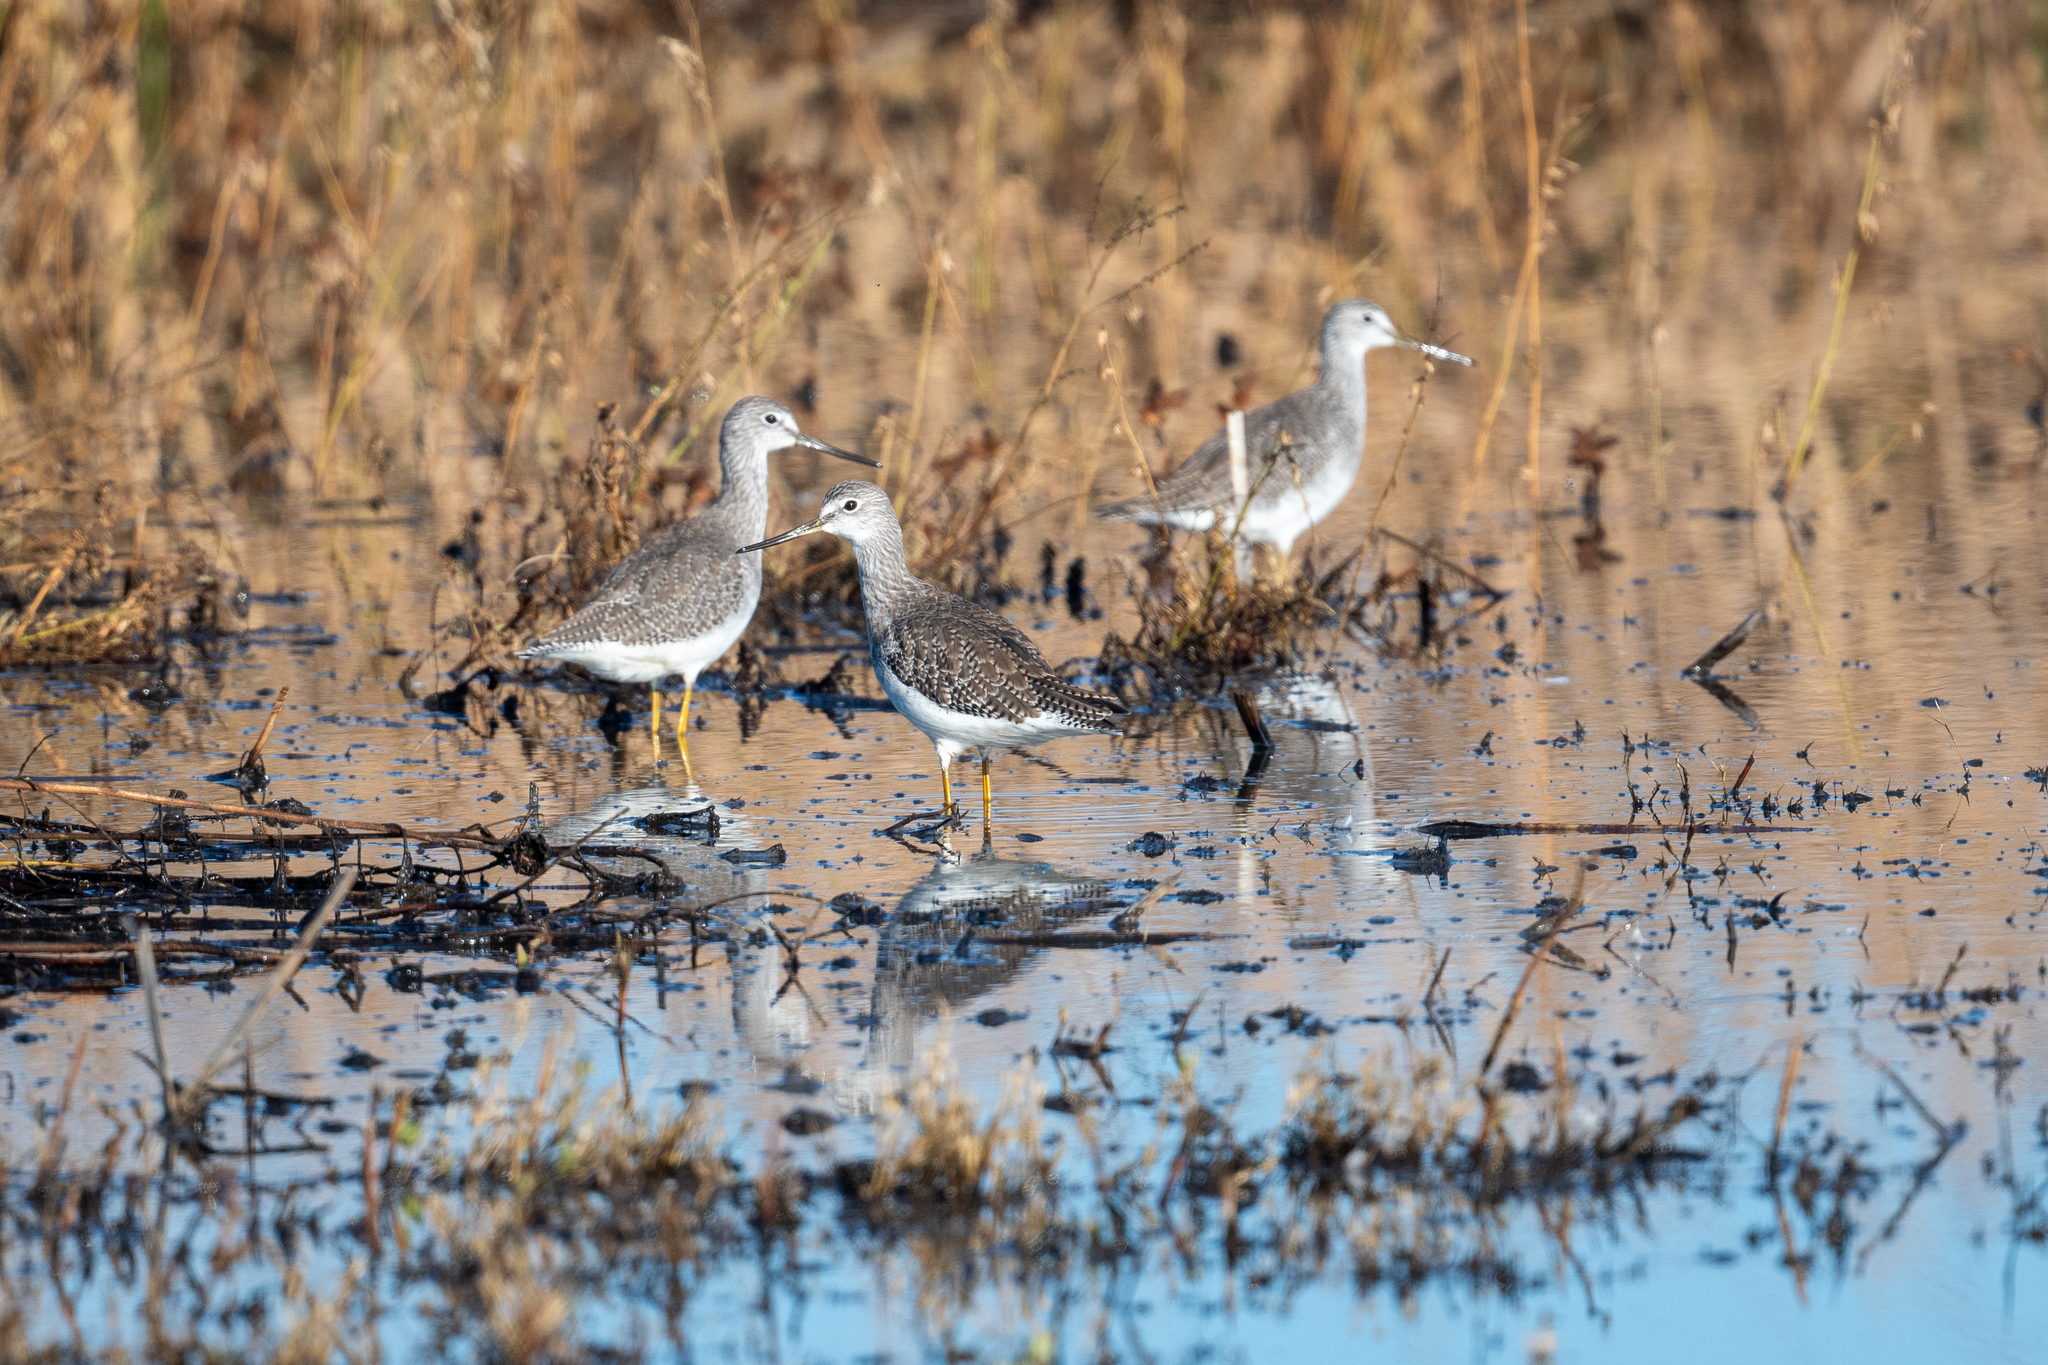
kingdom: Animalia
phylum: Chordata
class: Aves
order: Charadriiformes
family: Scolopacidae
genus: Tringa
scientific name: Tringa melanoleuca
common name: Greater yellowlegs
